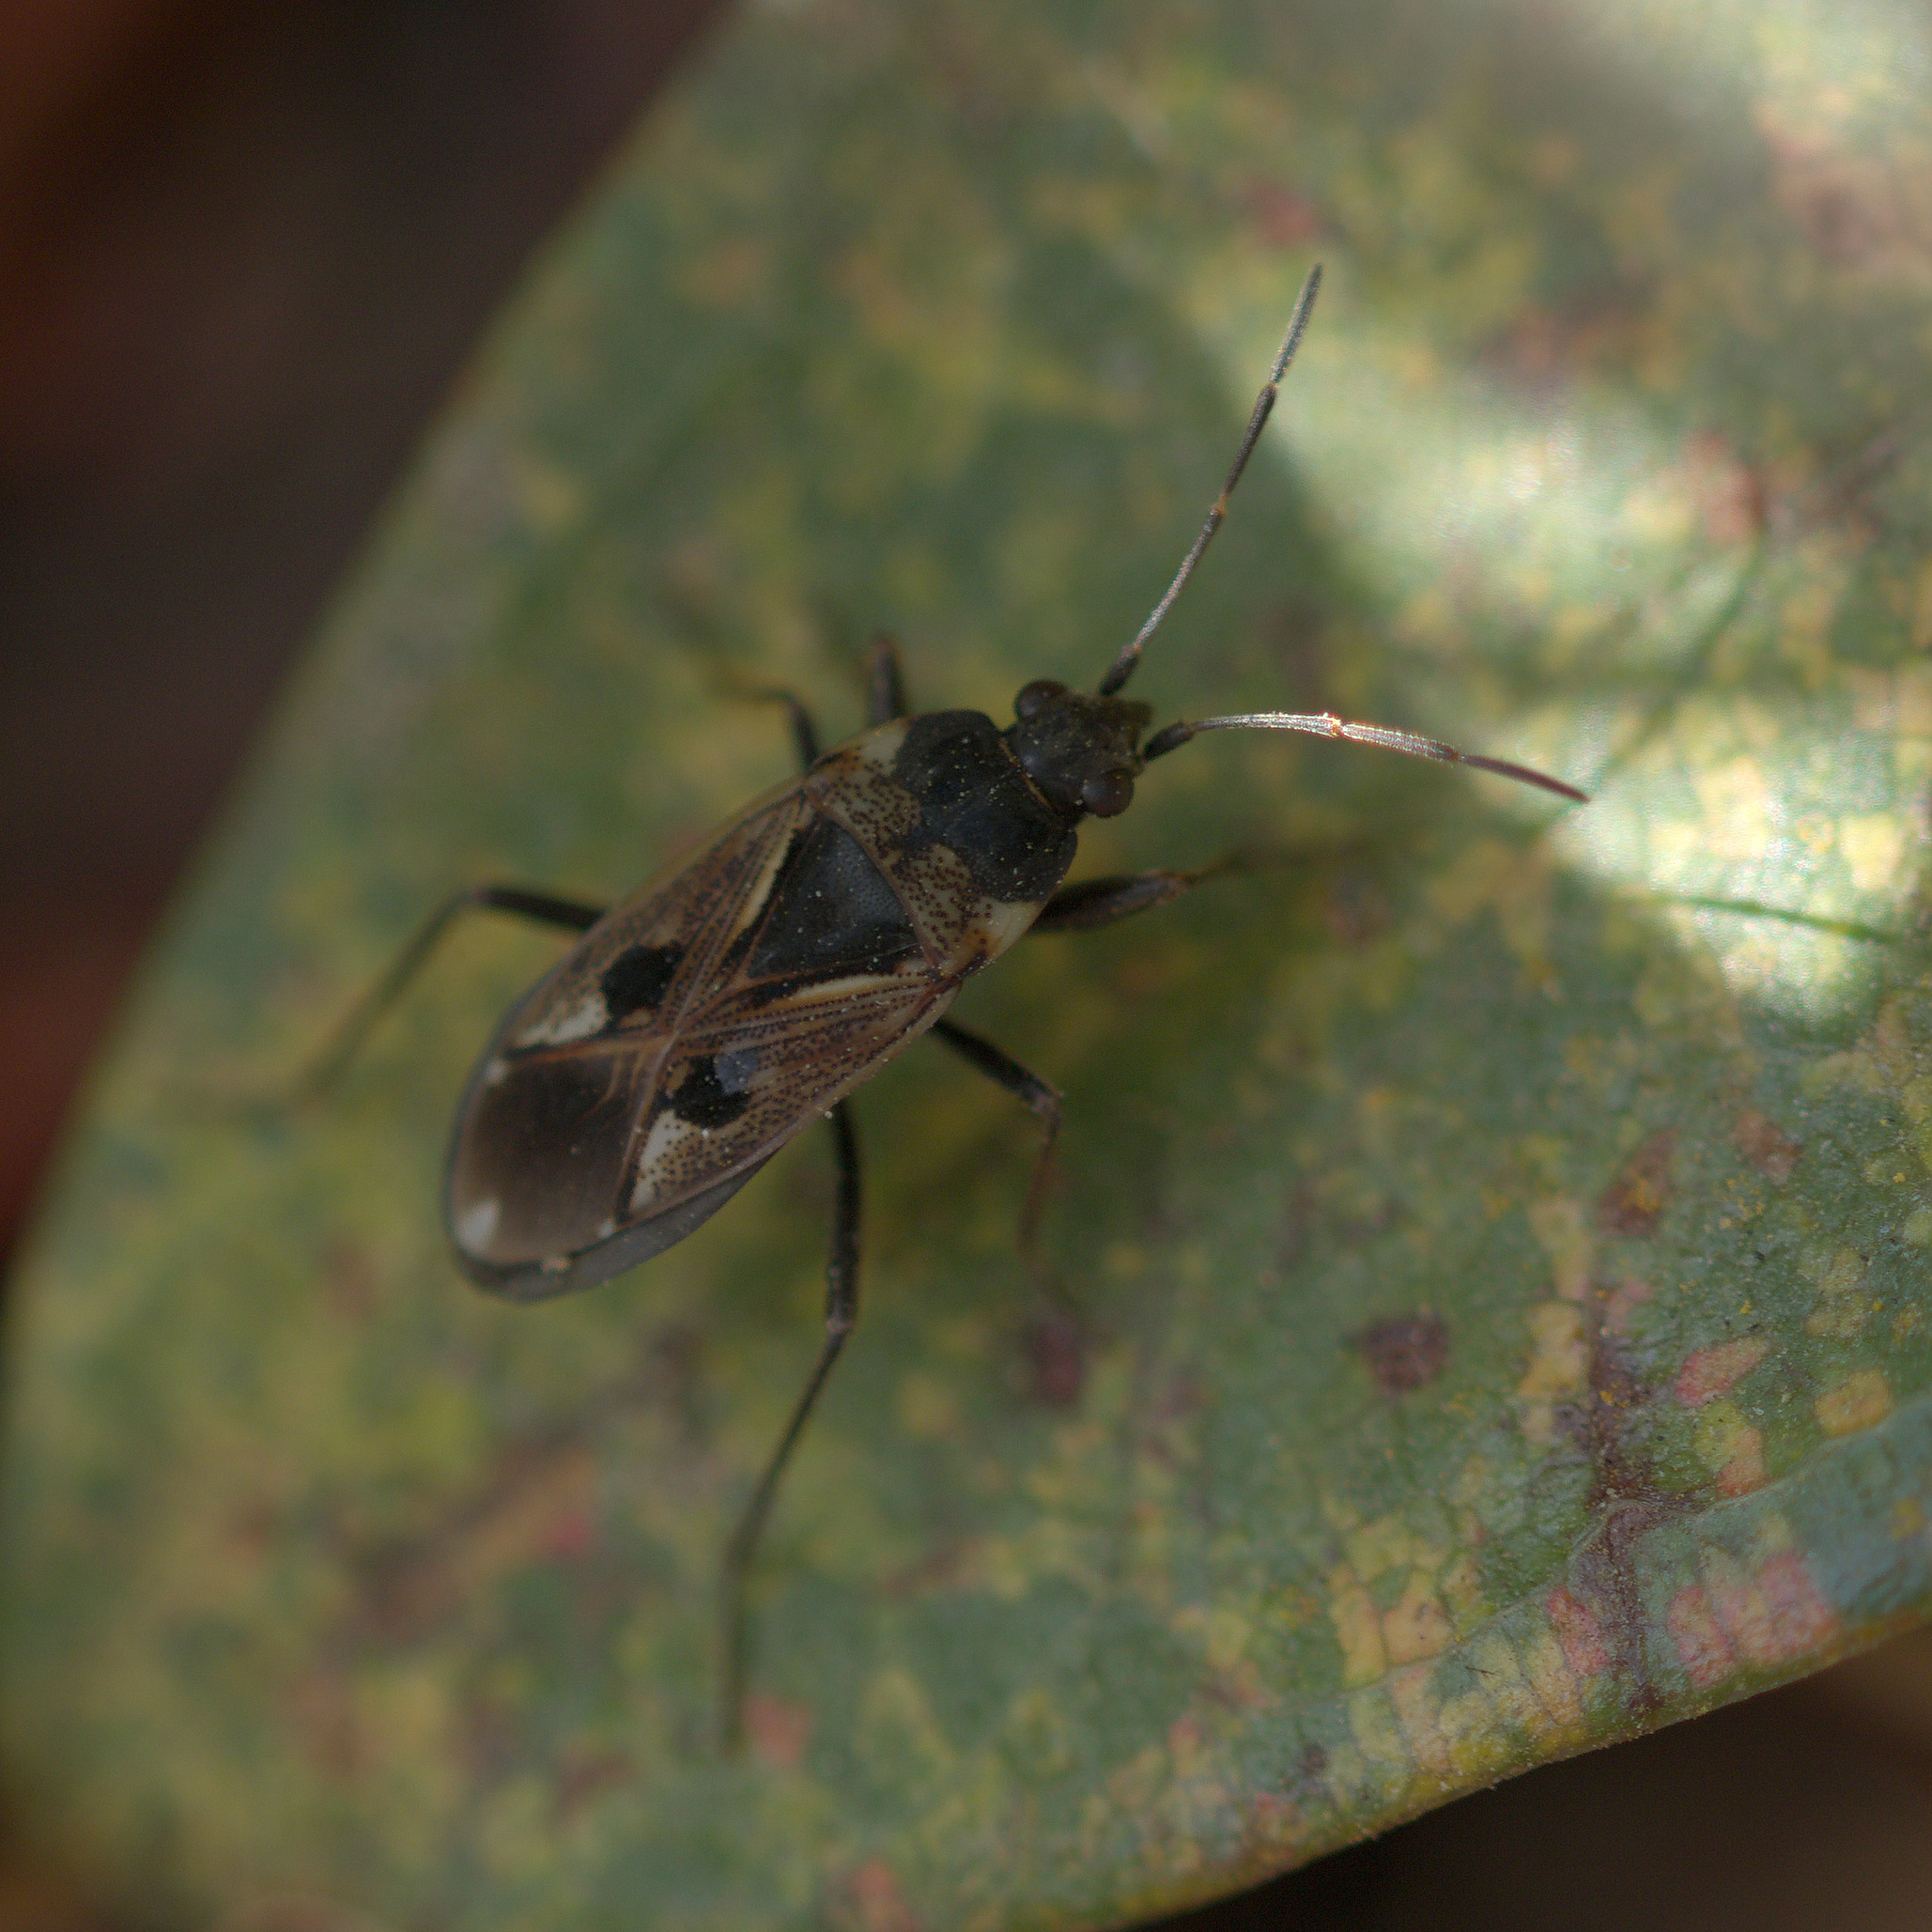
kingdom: Animalia
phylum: Arthropoda
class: Insecta
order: Hemiptera
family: Rhyparochromidae
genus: Rhyparochromus
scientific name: Rhyparochromus vulgaris
